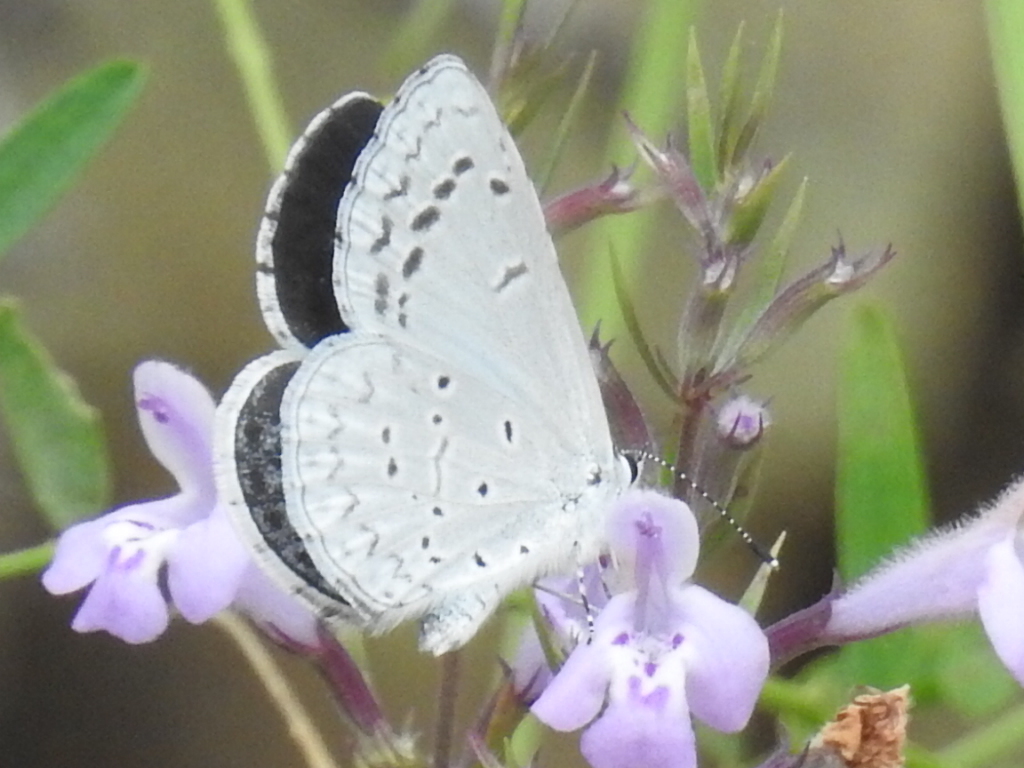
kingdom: Animalia
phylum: Arthropoda
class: Insecta
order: Lepidoptera
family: Lycaenidae
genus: Celastrina
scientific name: Celastrina argiolus
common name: Holly blue
